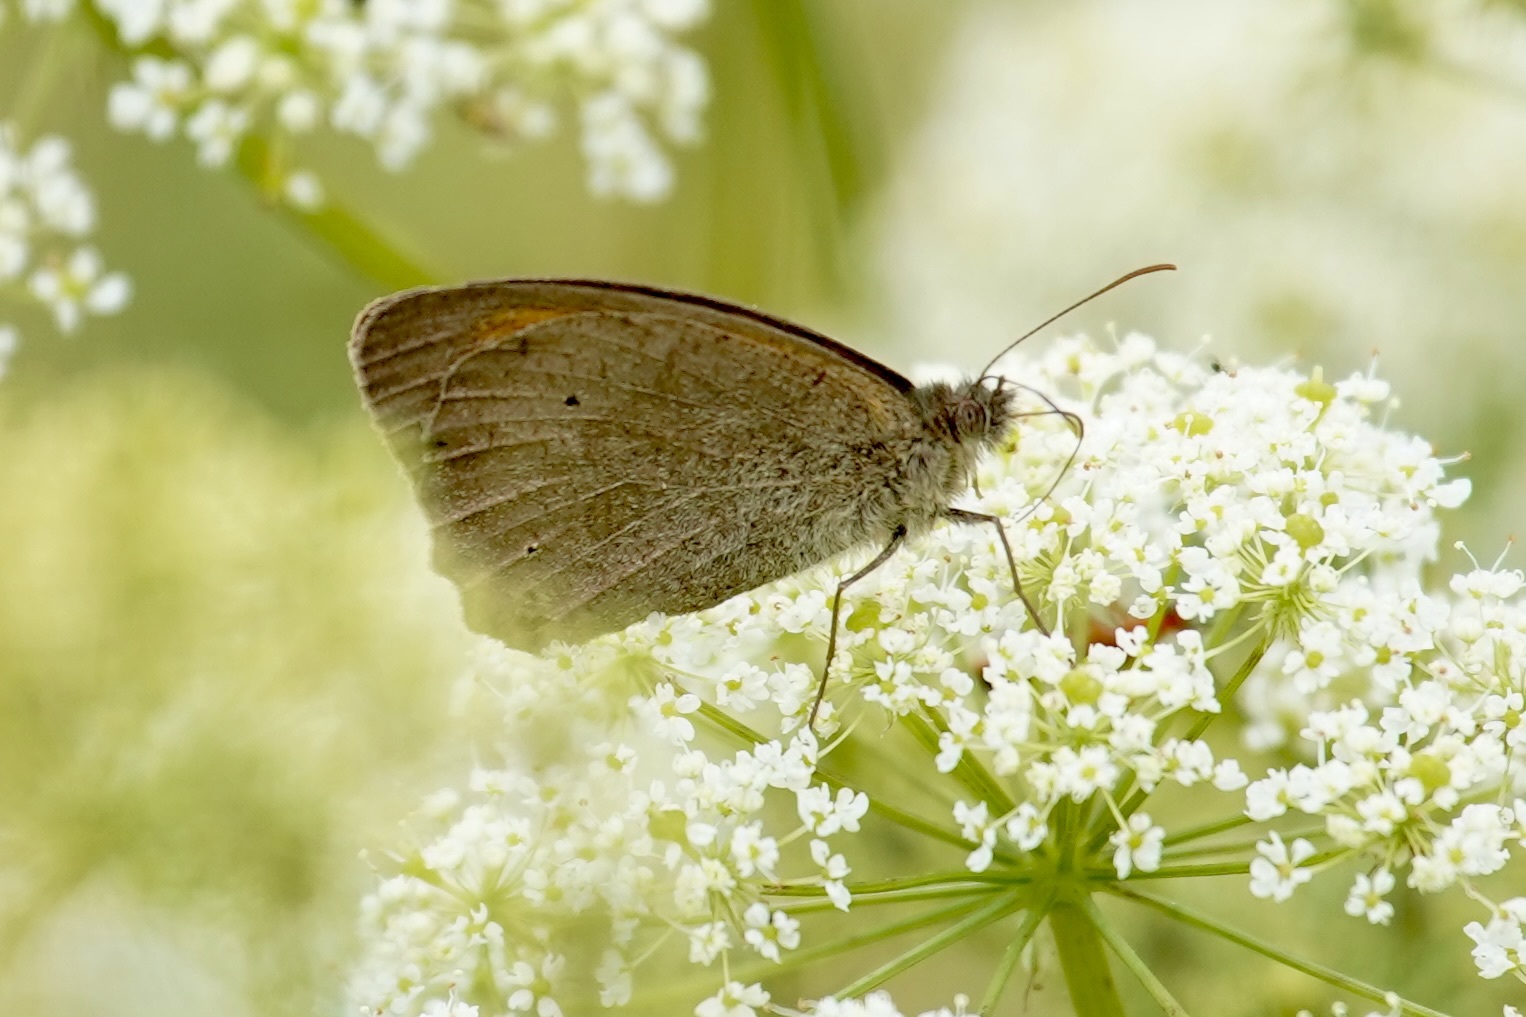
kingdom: Animalia
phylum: Arthropoda
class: Insecta
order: Lepidoptera
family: Nymphalidae
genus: Maniola
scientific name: Maniola jurtina
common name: Meadow brown
